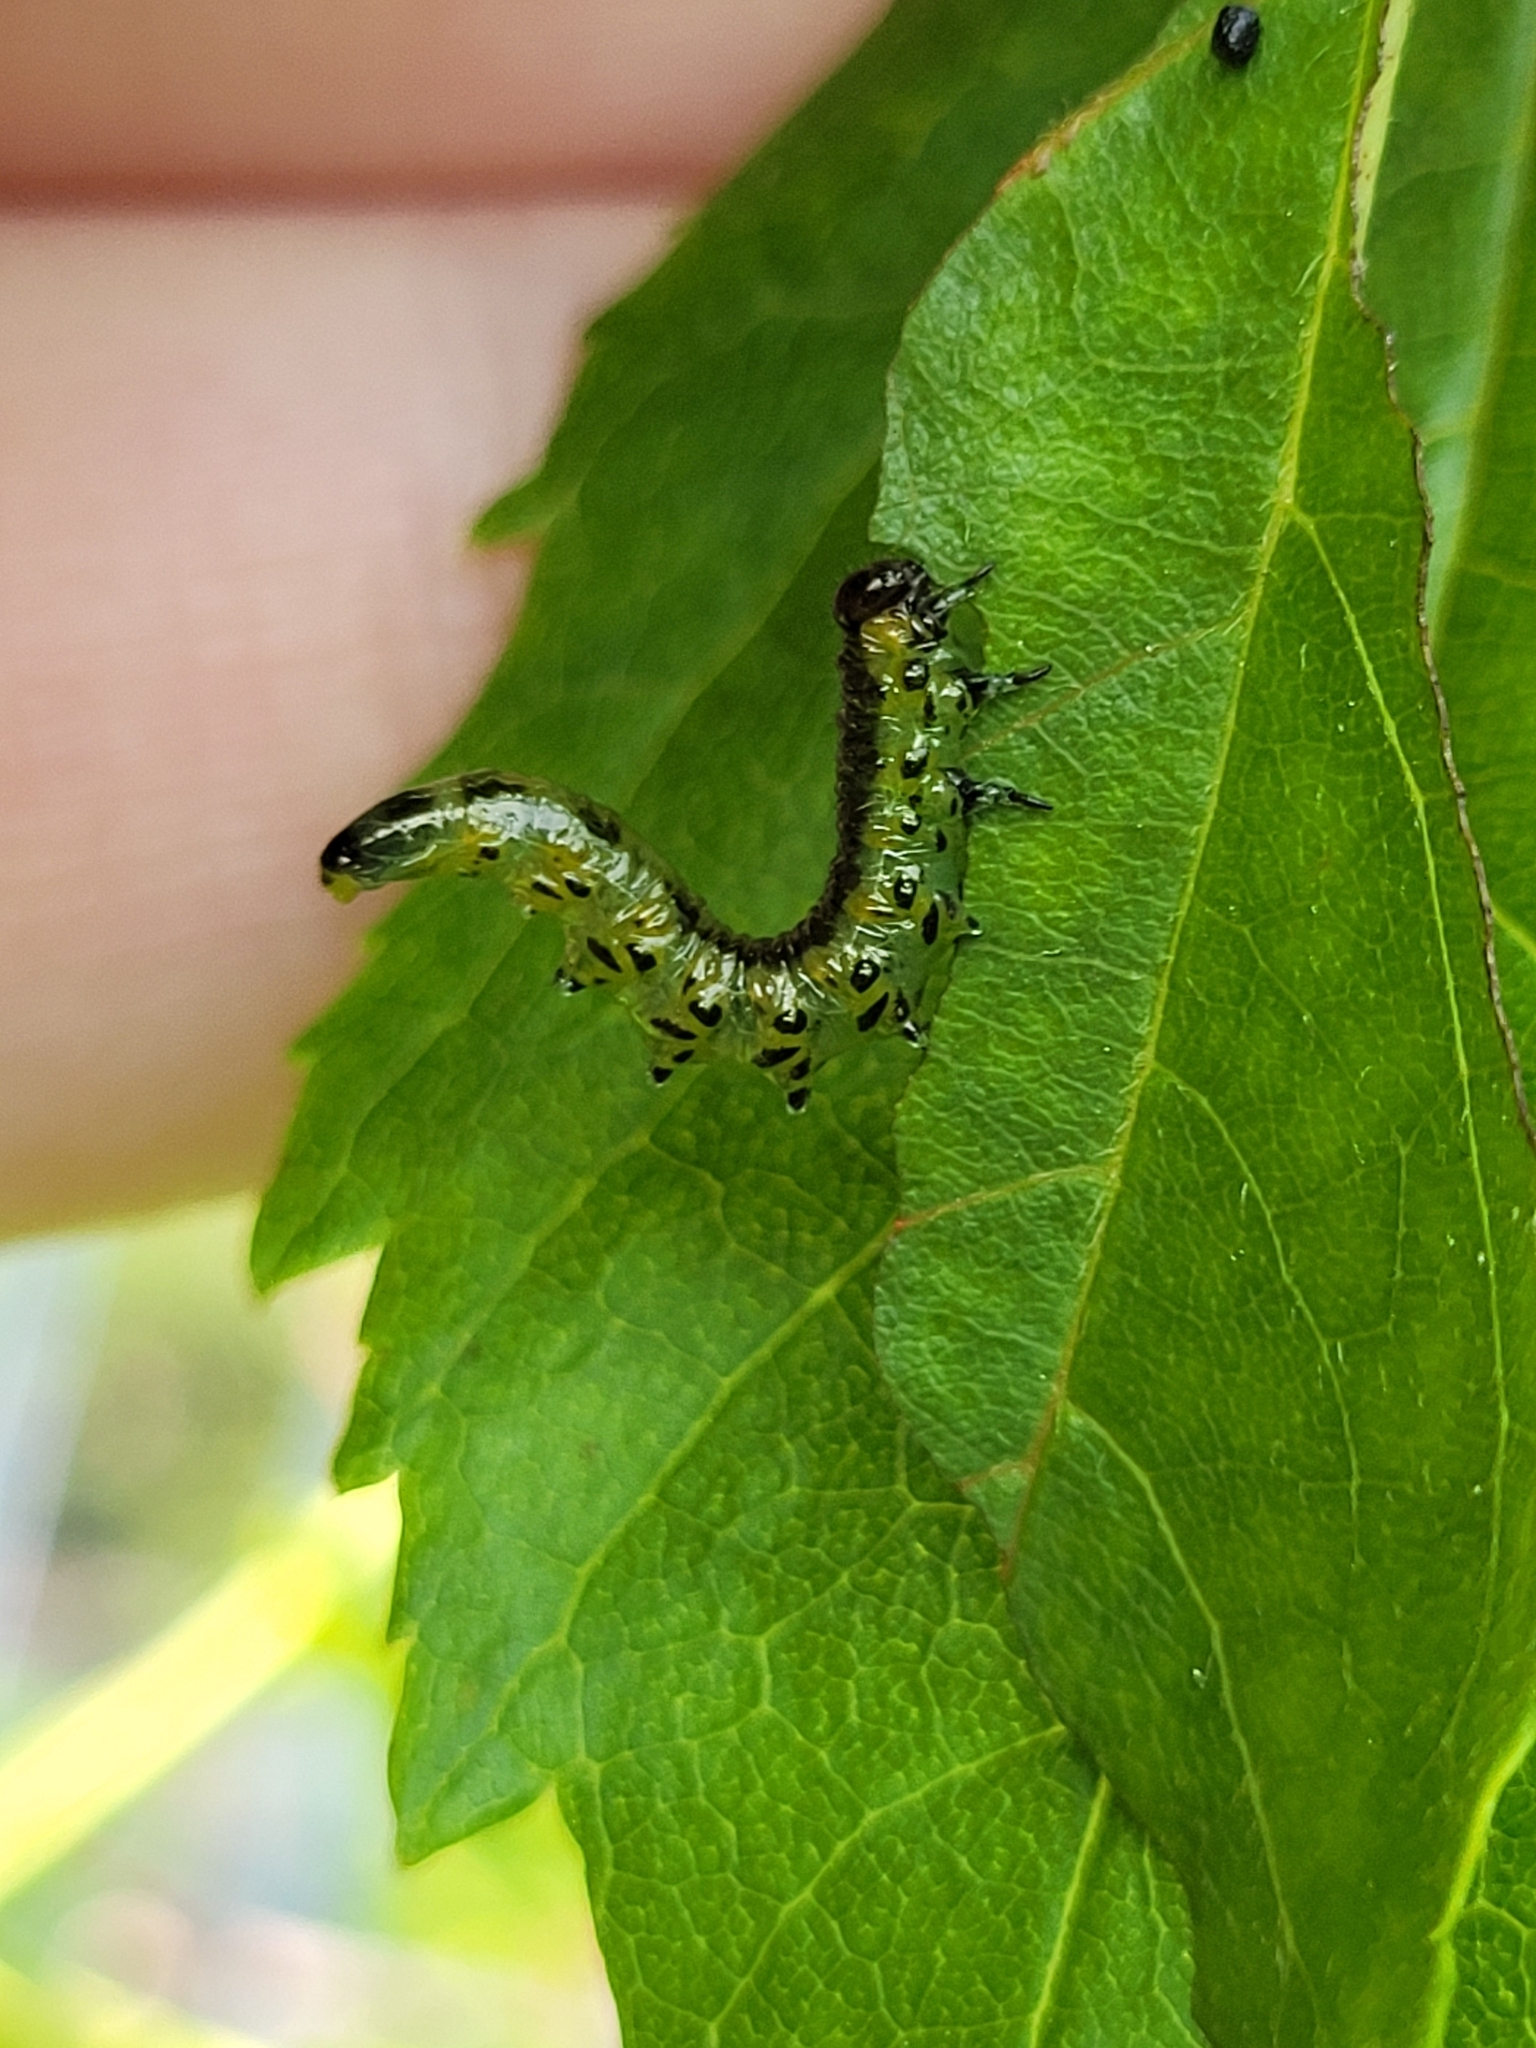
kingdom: Animalia
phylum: Arthropoda
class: Insecta
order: Hymenoptera
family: Tenthredinidae
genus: Pristiphora
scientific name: Pristiphora testacea
